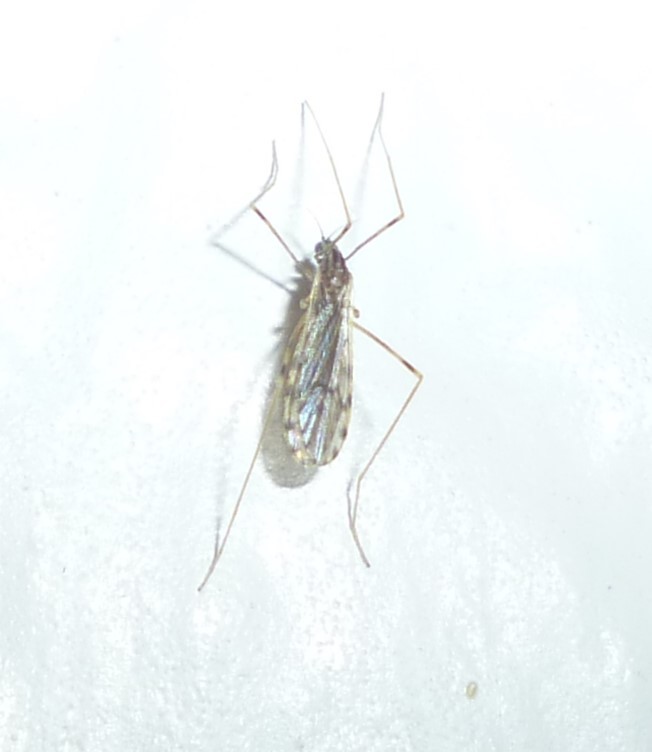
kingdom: Animalia
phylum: Arthropoda
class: Insecta
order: Diptera
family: Limoniidae
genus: Erioptera
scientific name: Erioptera parva
